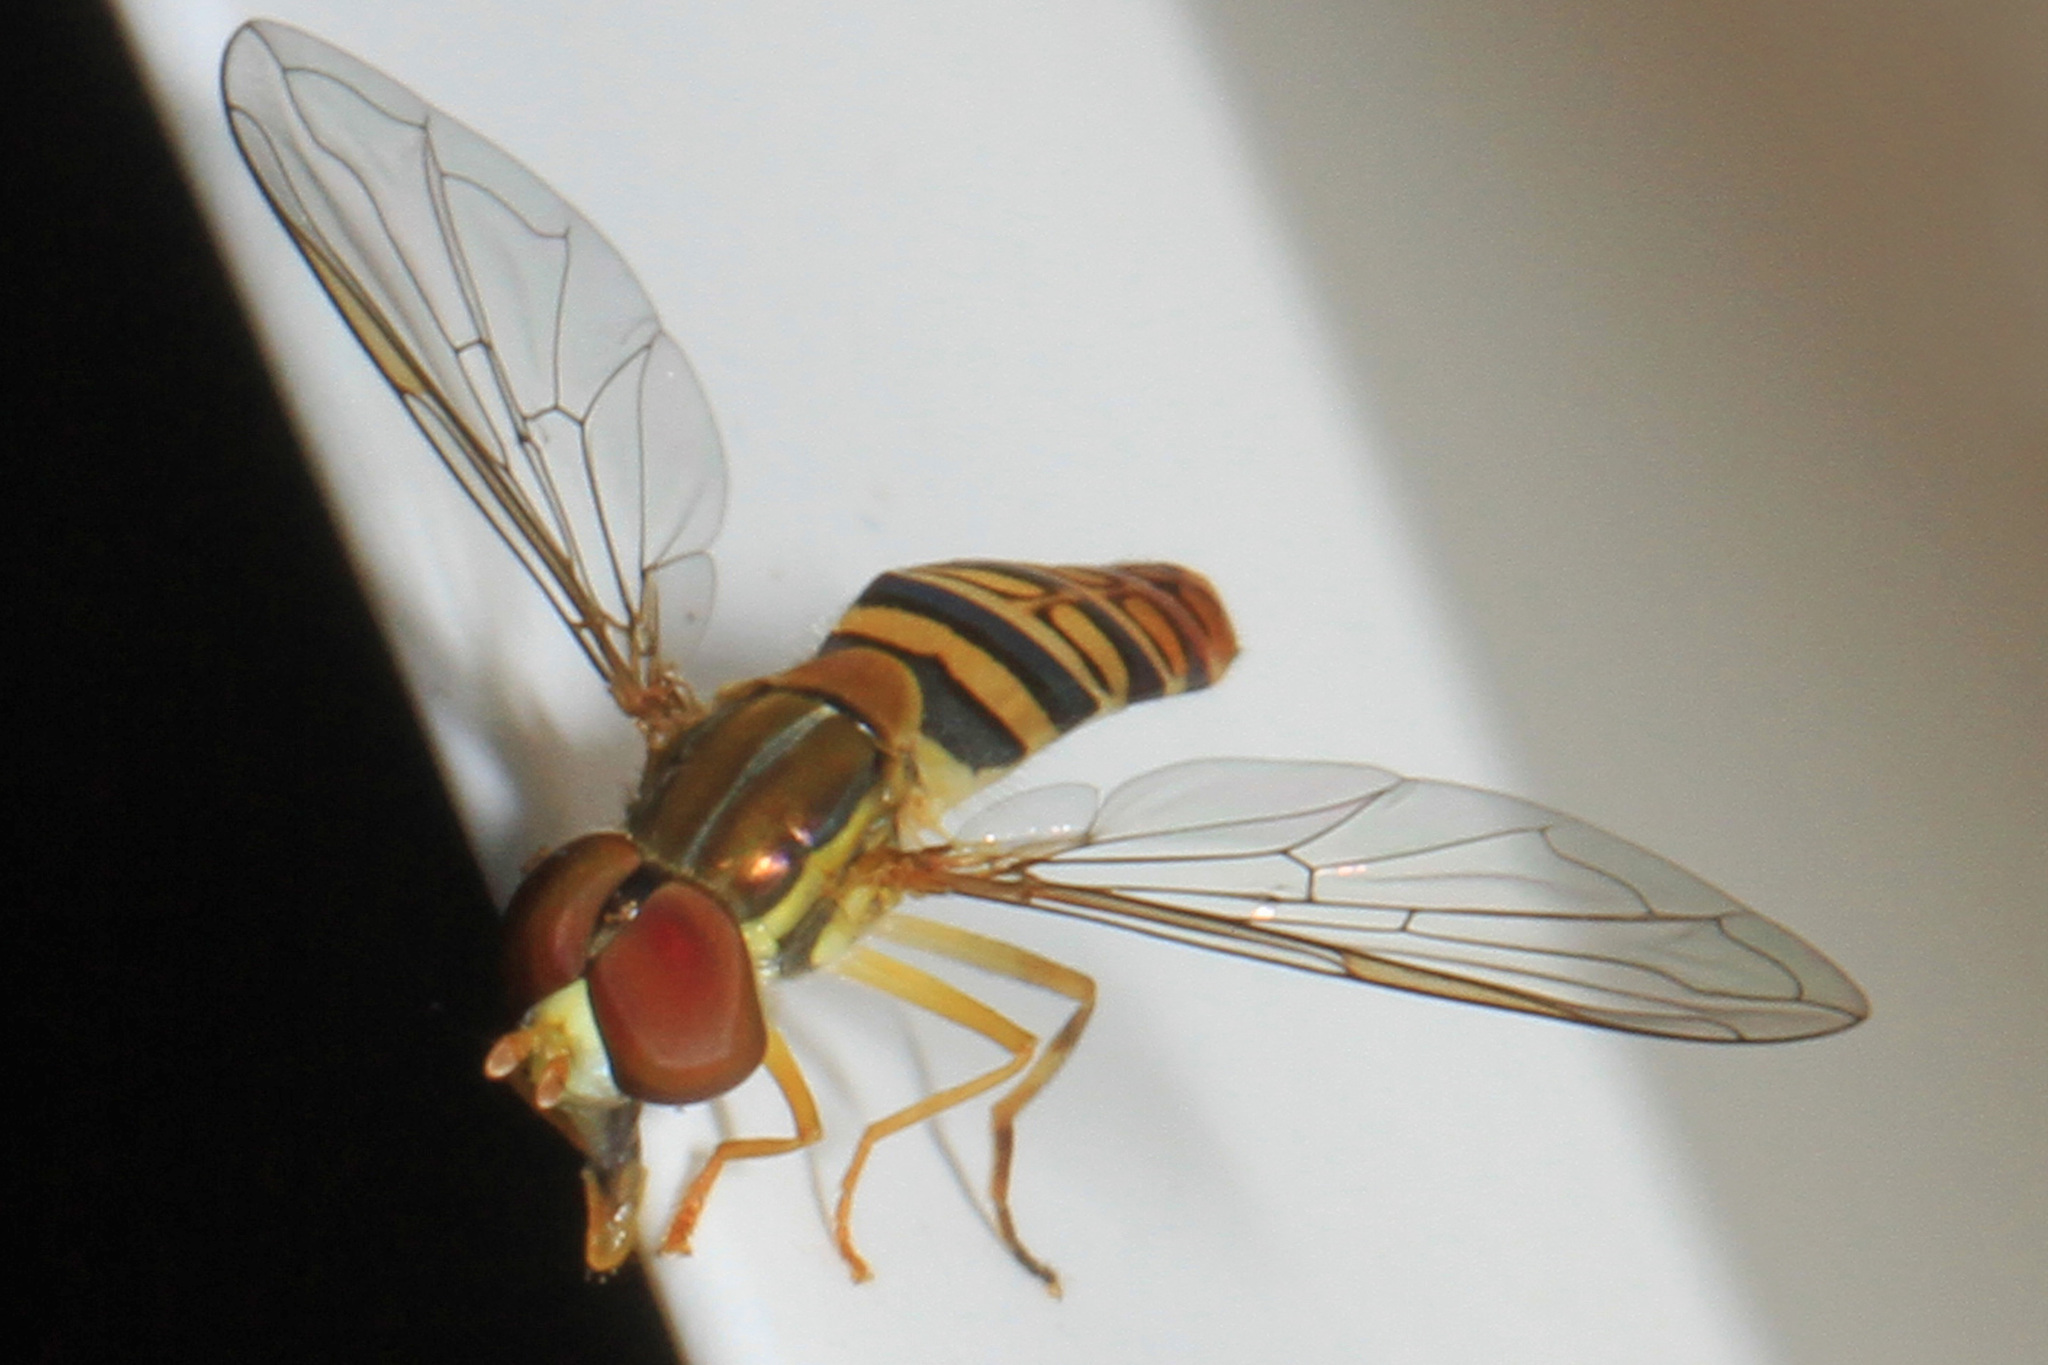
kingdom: Animalia
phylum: Arthropoda
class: Insecta
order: Diptera
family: Syrphidae
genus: Toxomerus
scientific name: Toxomerus politus
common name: Maize calligrapher
